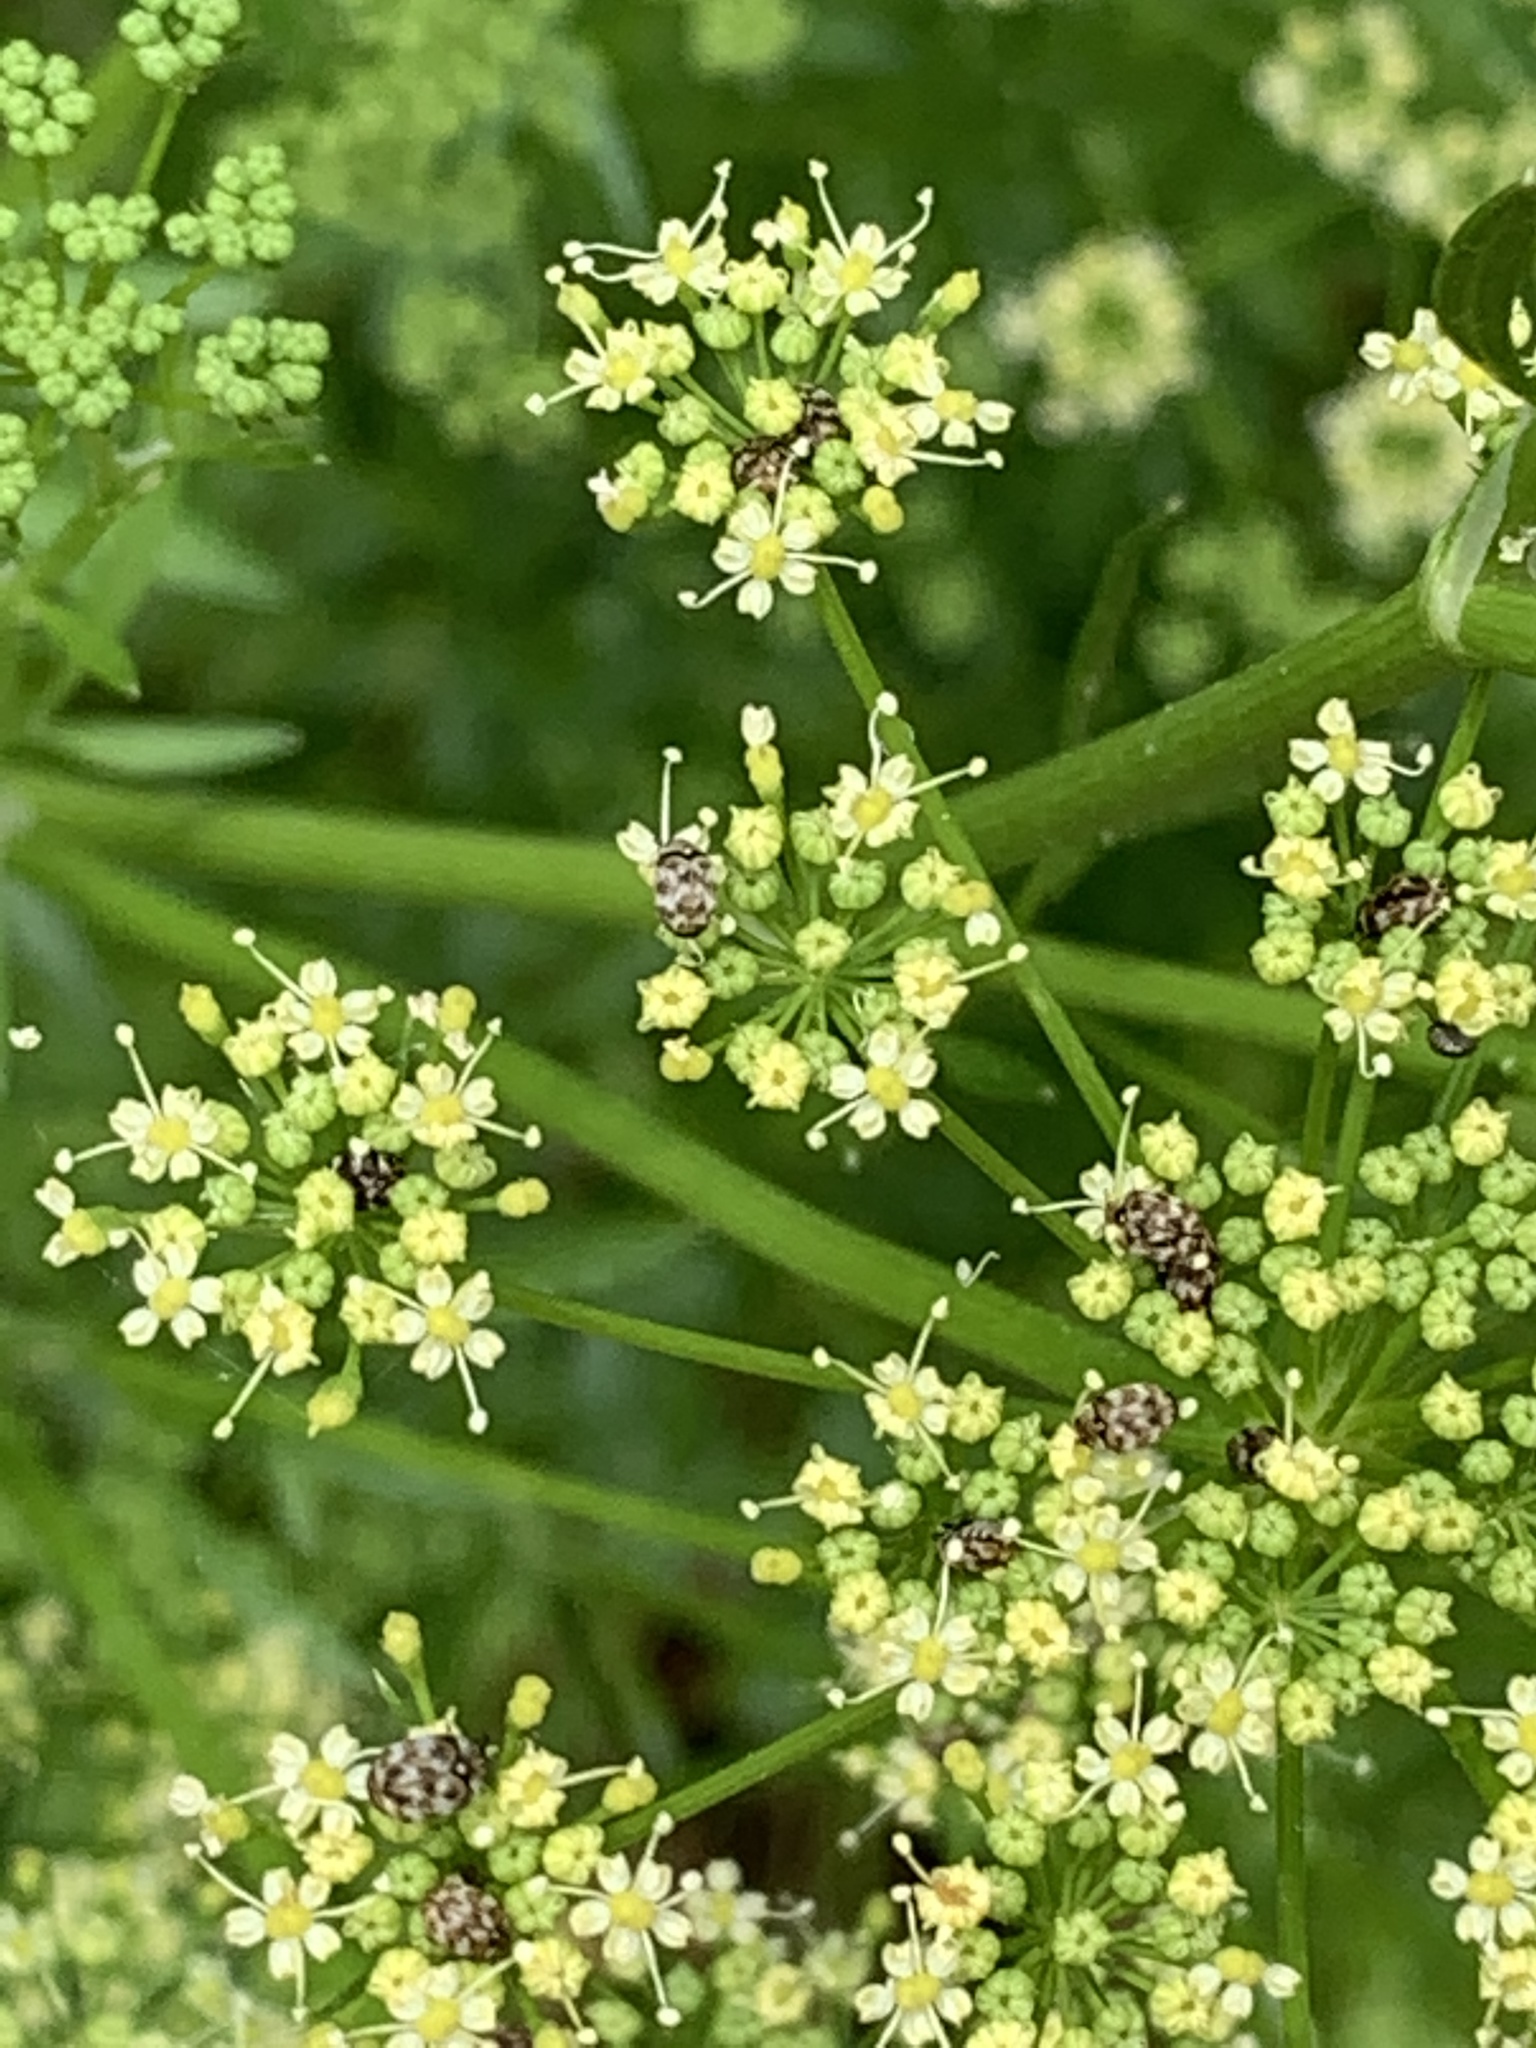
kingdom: Animalia
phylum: Arthropoda
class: Insecta
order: Coleoptera
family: Dermestidae
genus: Anthrenus
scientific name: Anthrenus verbasci
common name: Varied carpet beetle
